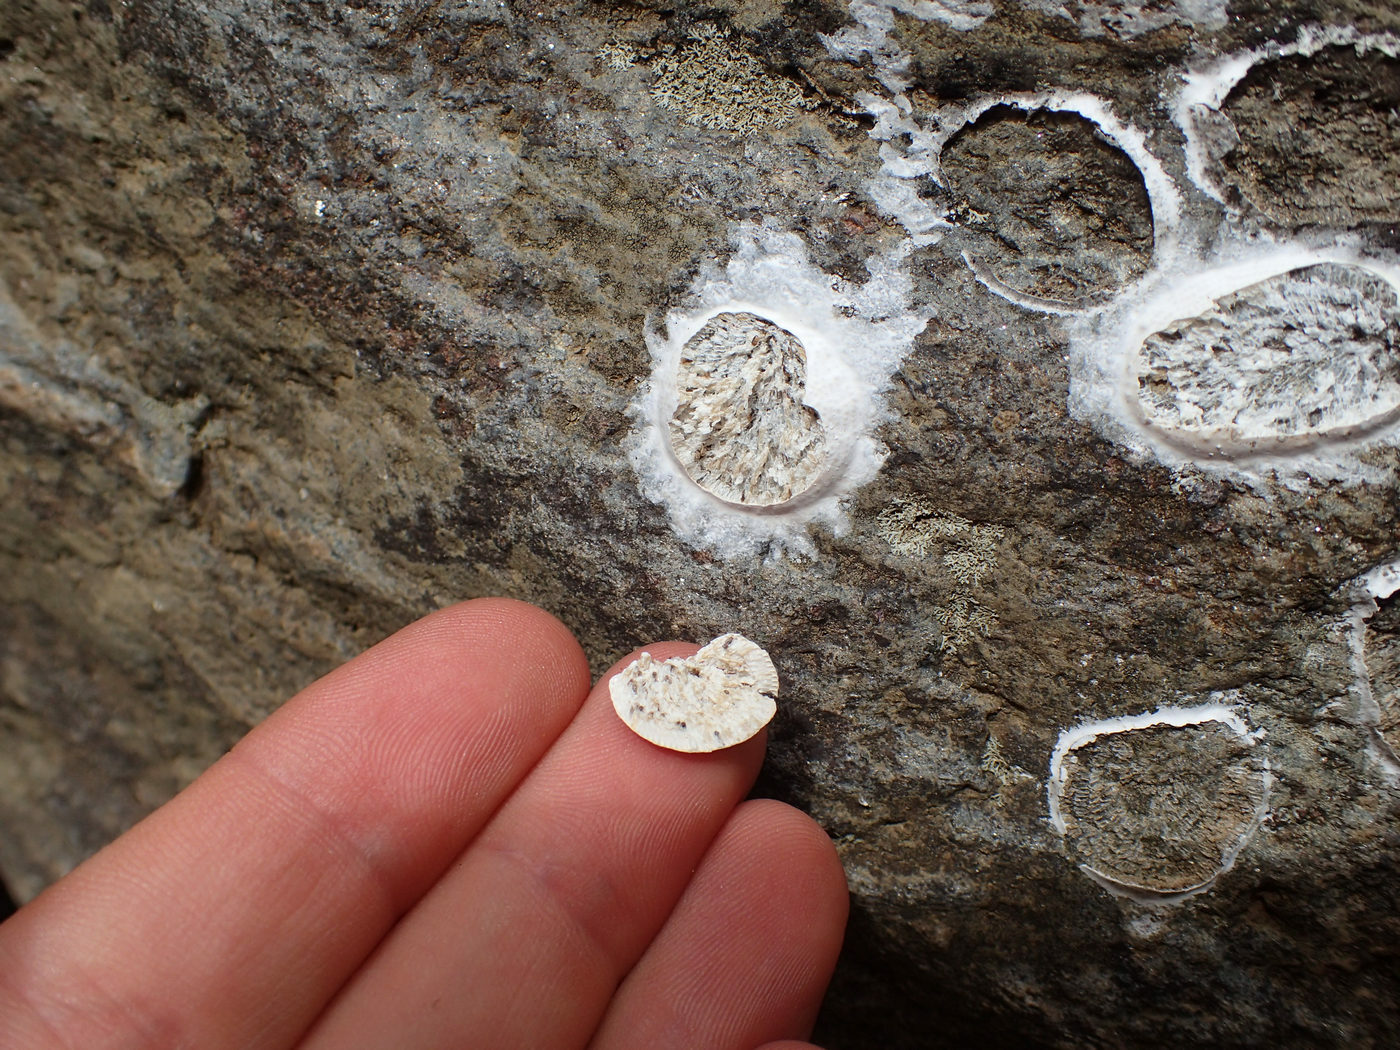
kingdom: Animalia
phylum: Arthropoda
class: Insecta
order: Megaloptera
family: Corydalidae
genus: Corydalus
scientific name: Corydalus cornutus
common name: Dobsonfly
